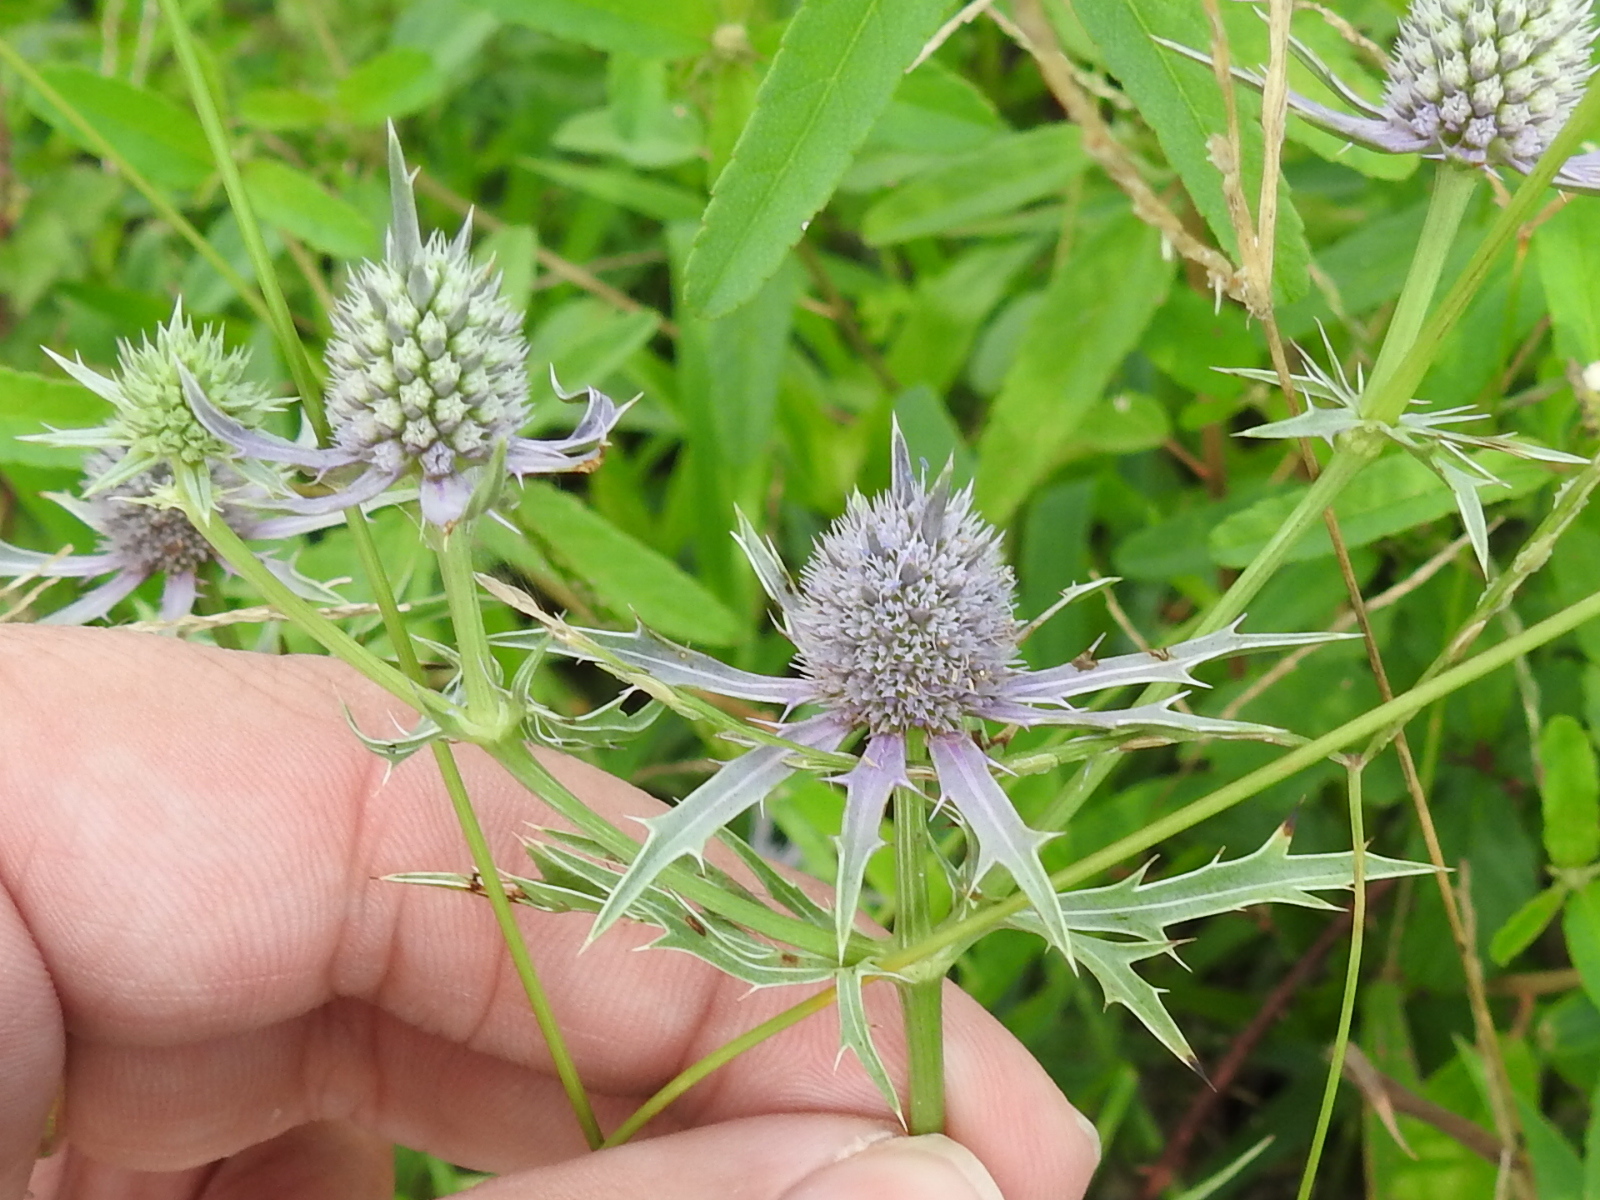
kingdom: Plantae
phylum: Tracheophyta
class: Magnoliopsida
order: Apiales
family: Apiaceae
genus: Eryngium
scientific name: Eryngium hookeri
